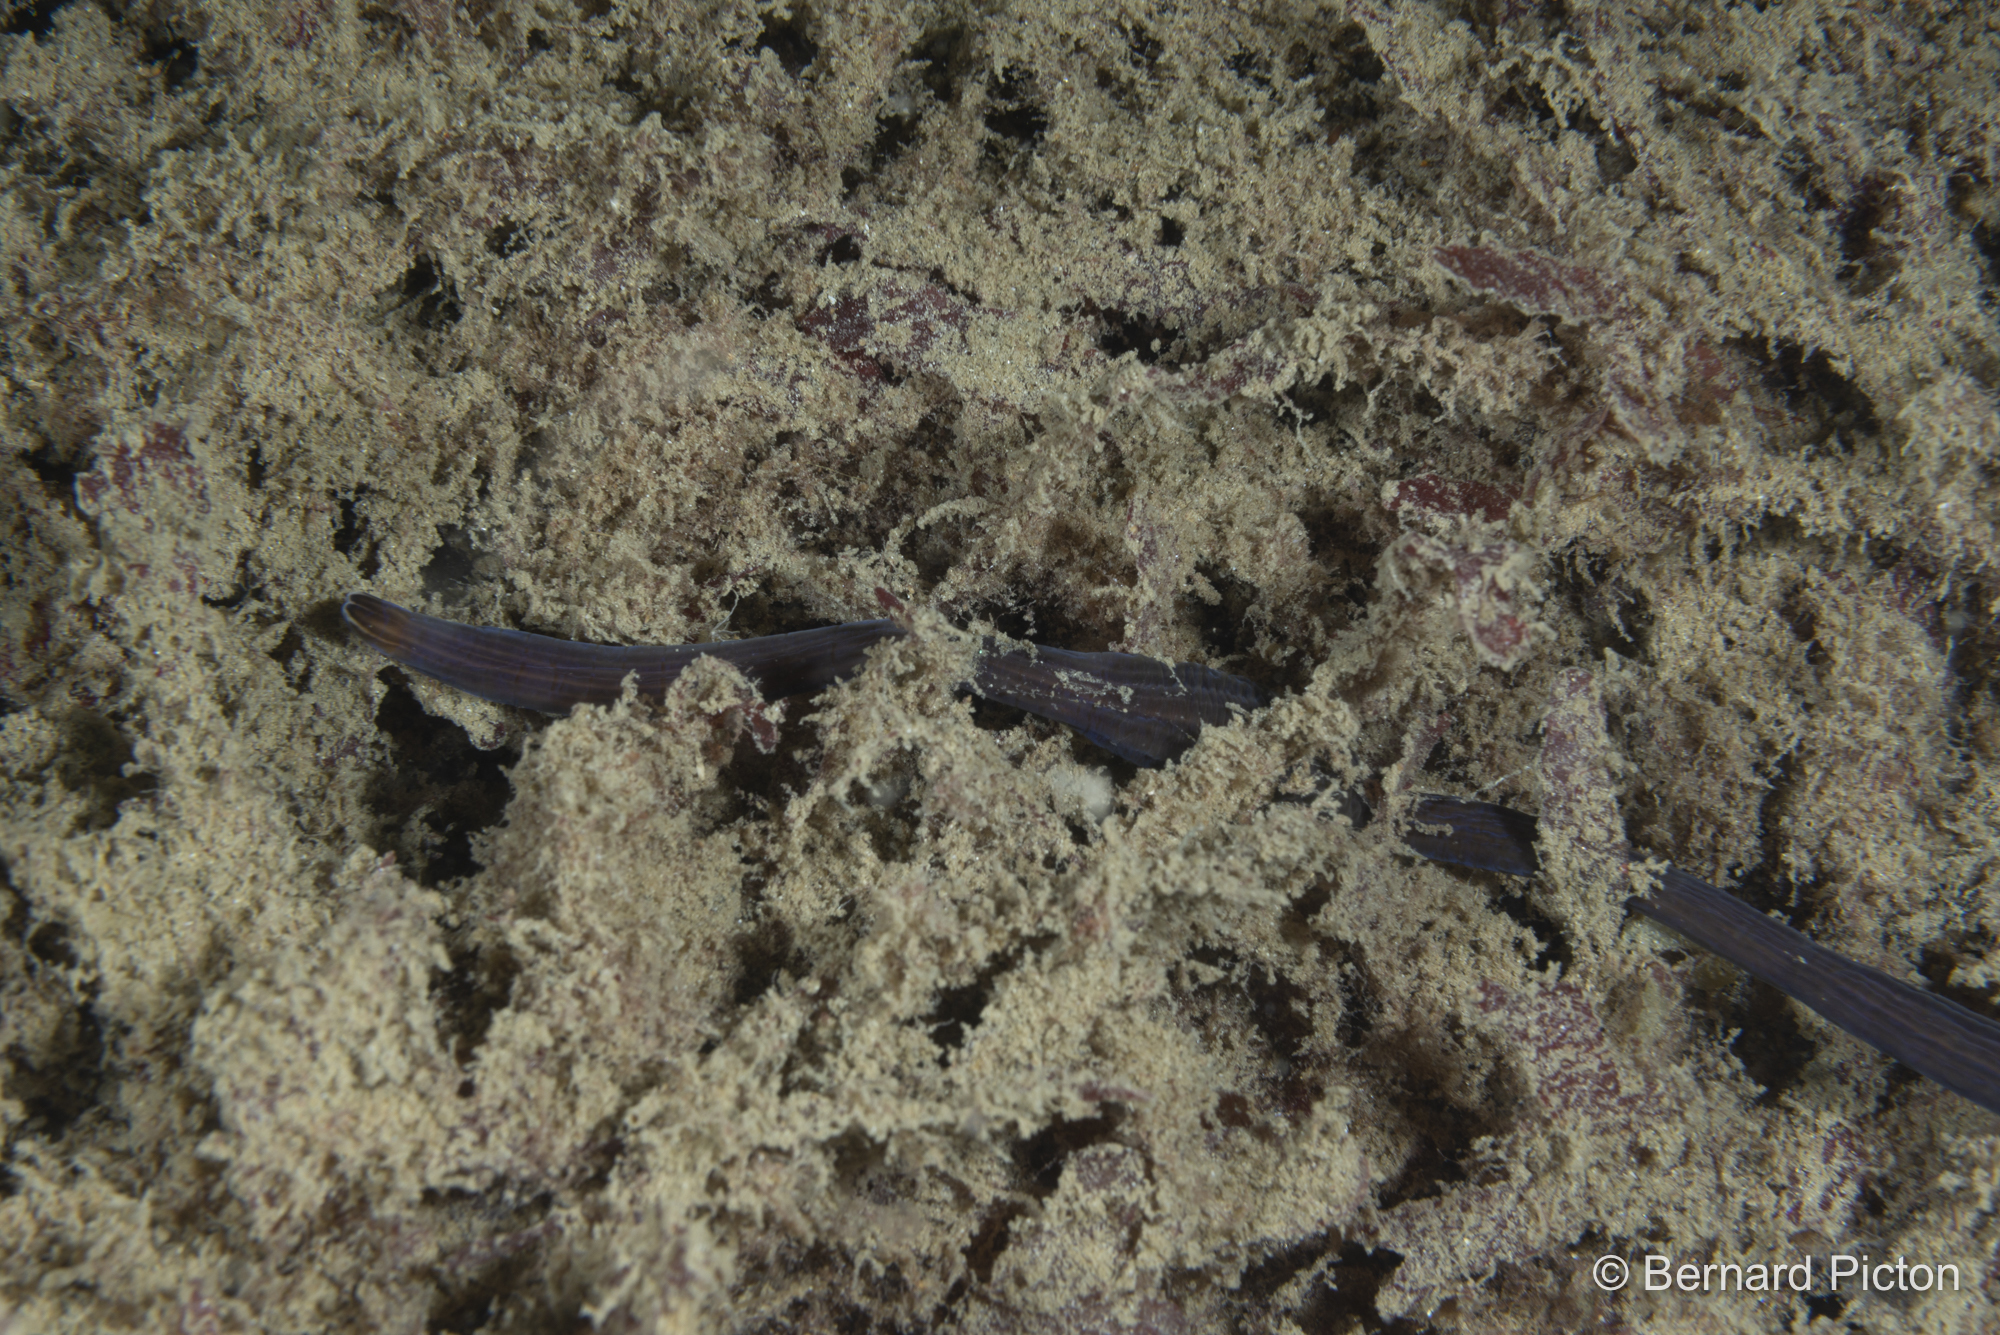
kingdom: Animalia
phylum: Nemertea
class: Pilidiophora
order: Heteronemertea
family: Lineidae
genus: Lineus
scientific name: Lineus longissimus
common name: Bootlace worm
